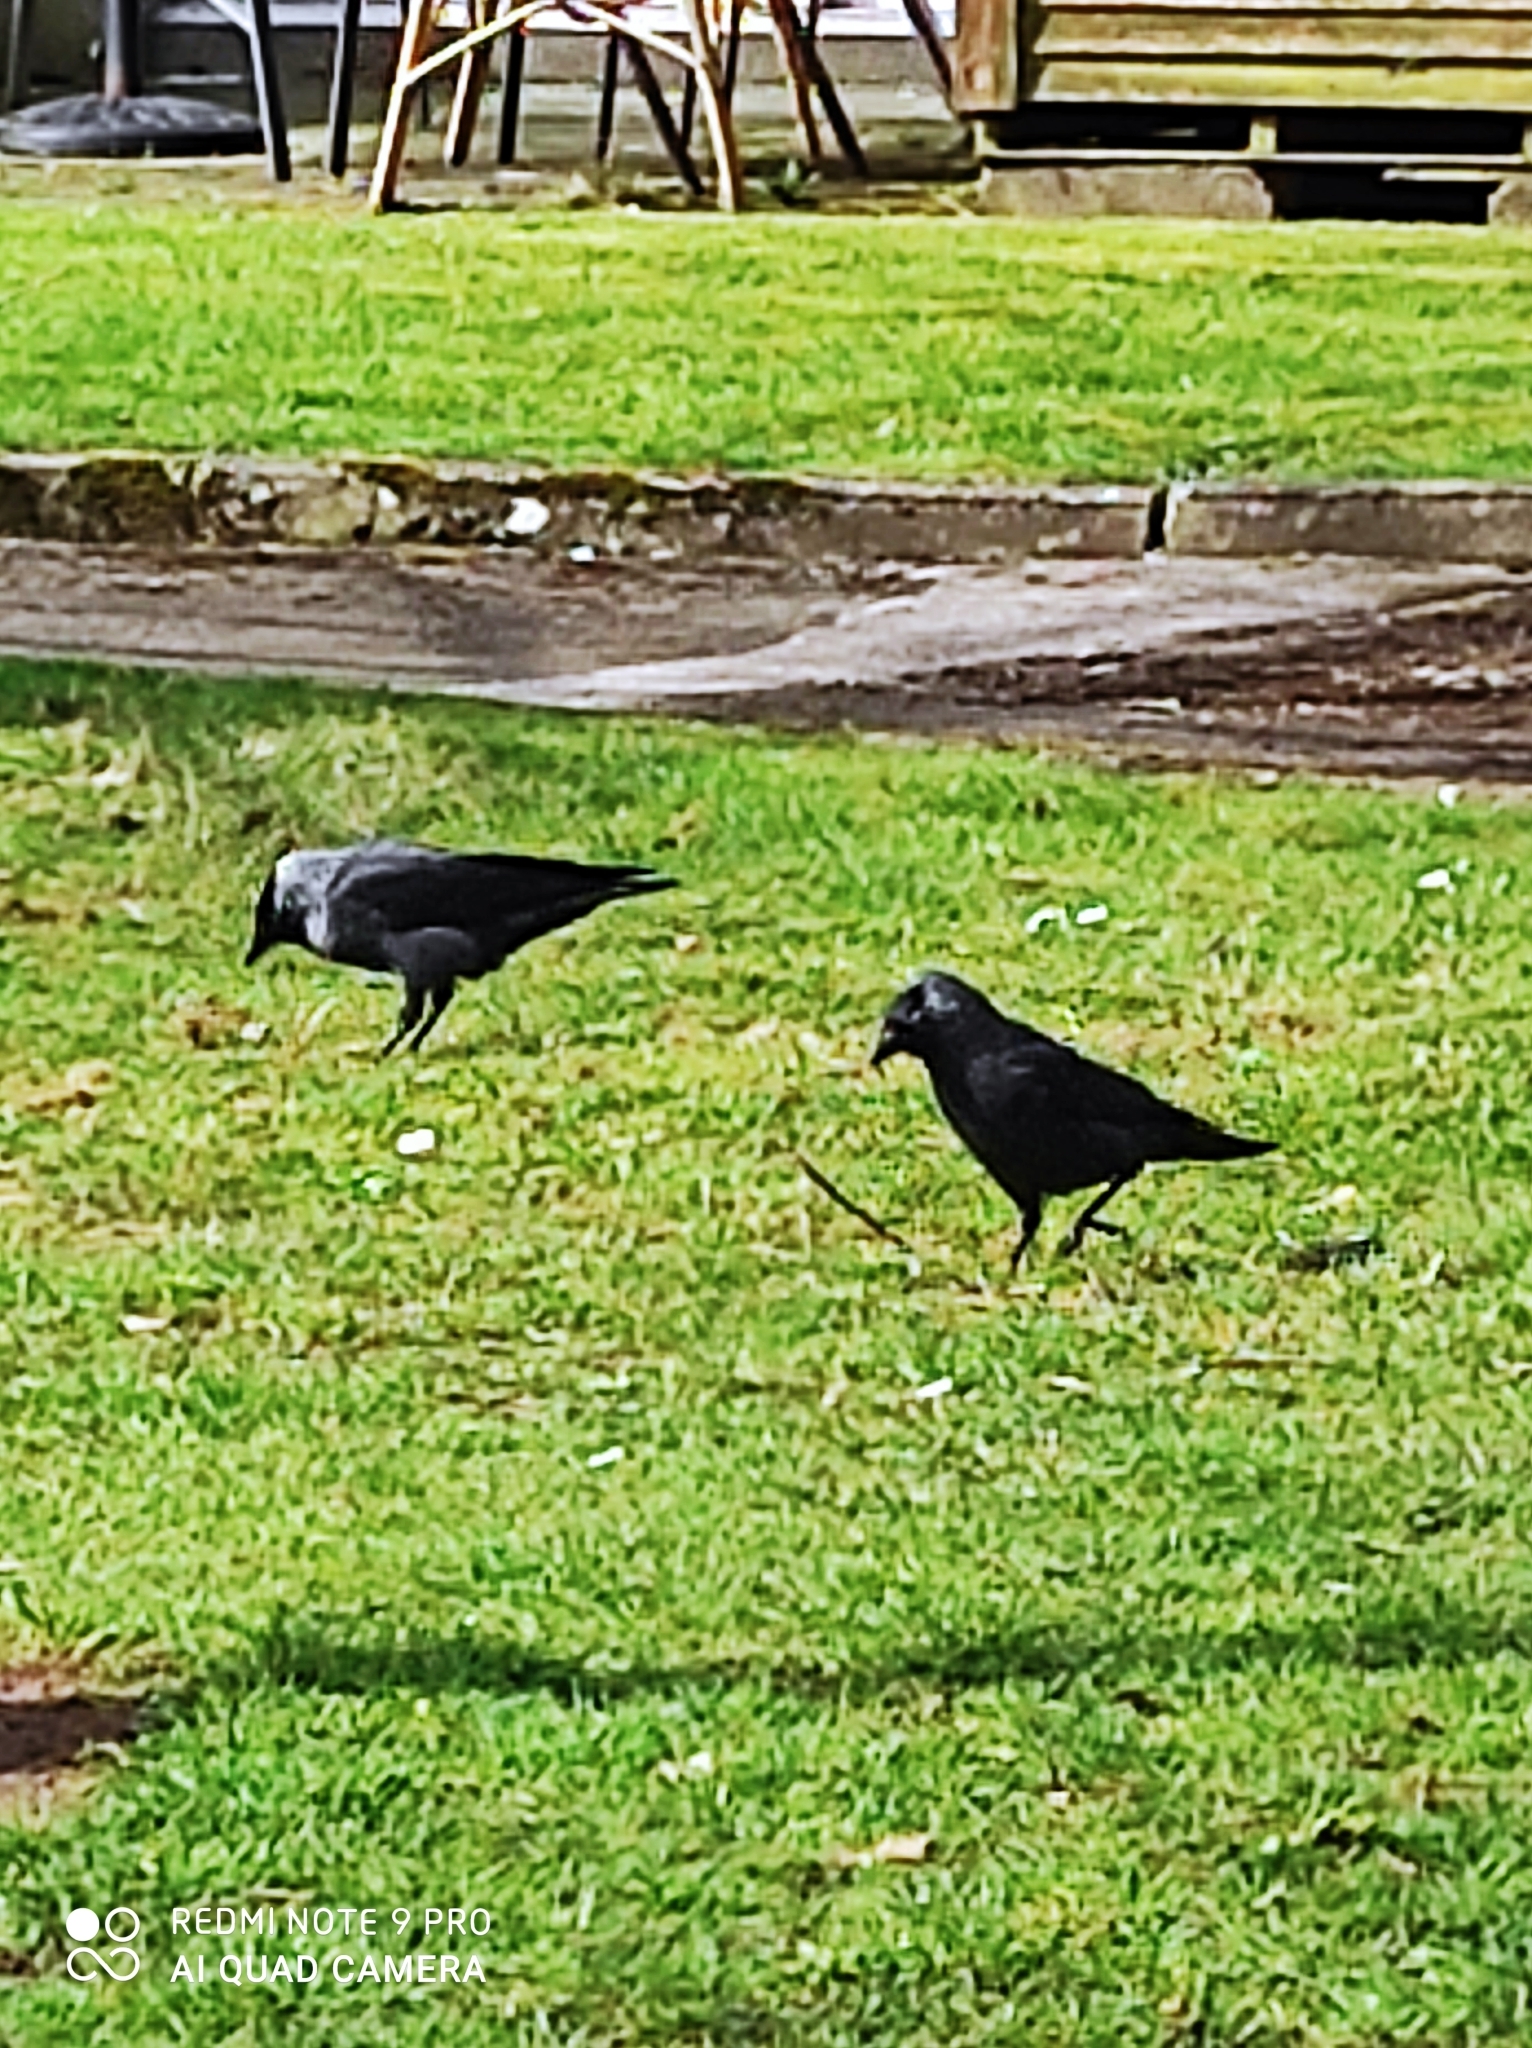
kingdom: Animalia
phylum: Chordata
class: Aves
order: Passeriformes
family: Corvidae
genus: Coloeus
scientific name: Coloeus monedula
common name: Western jackdaw
